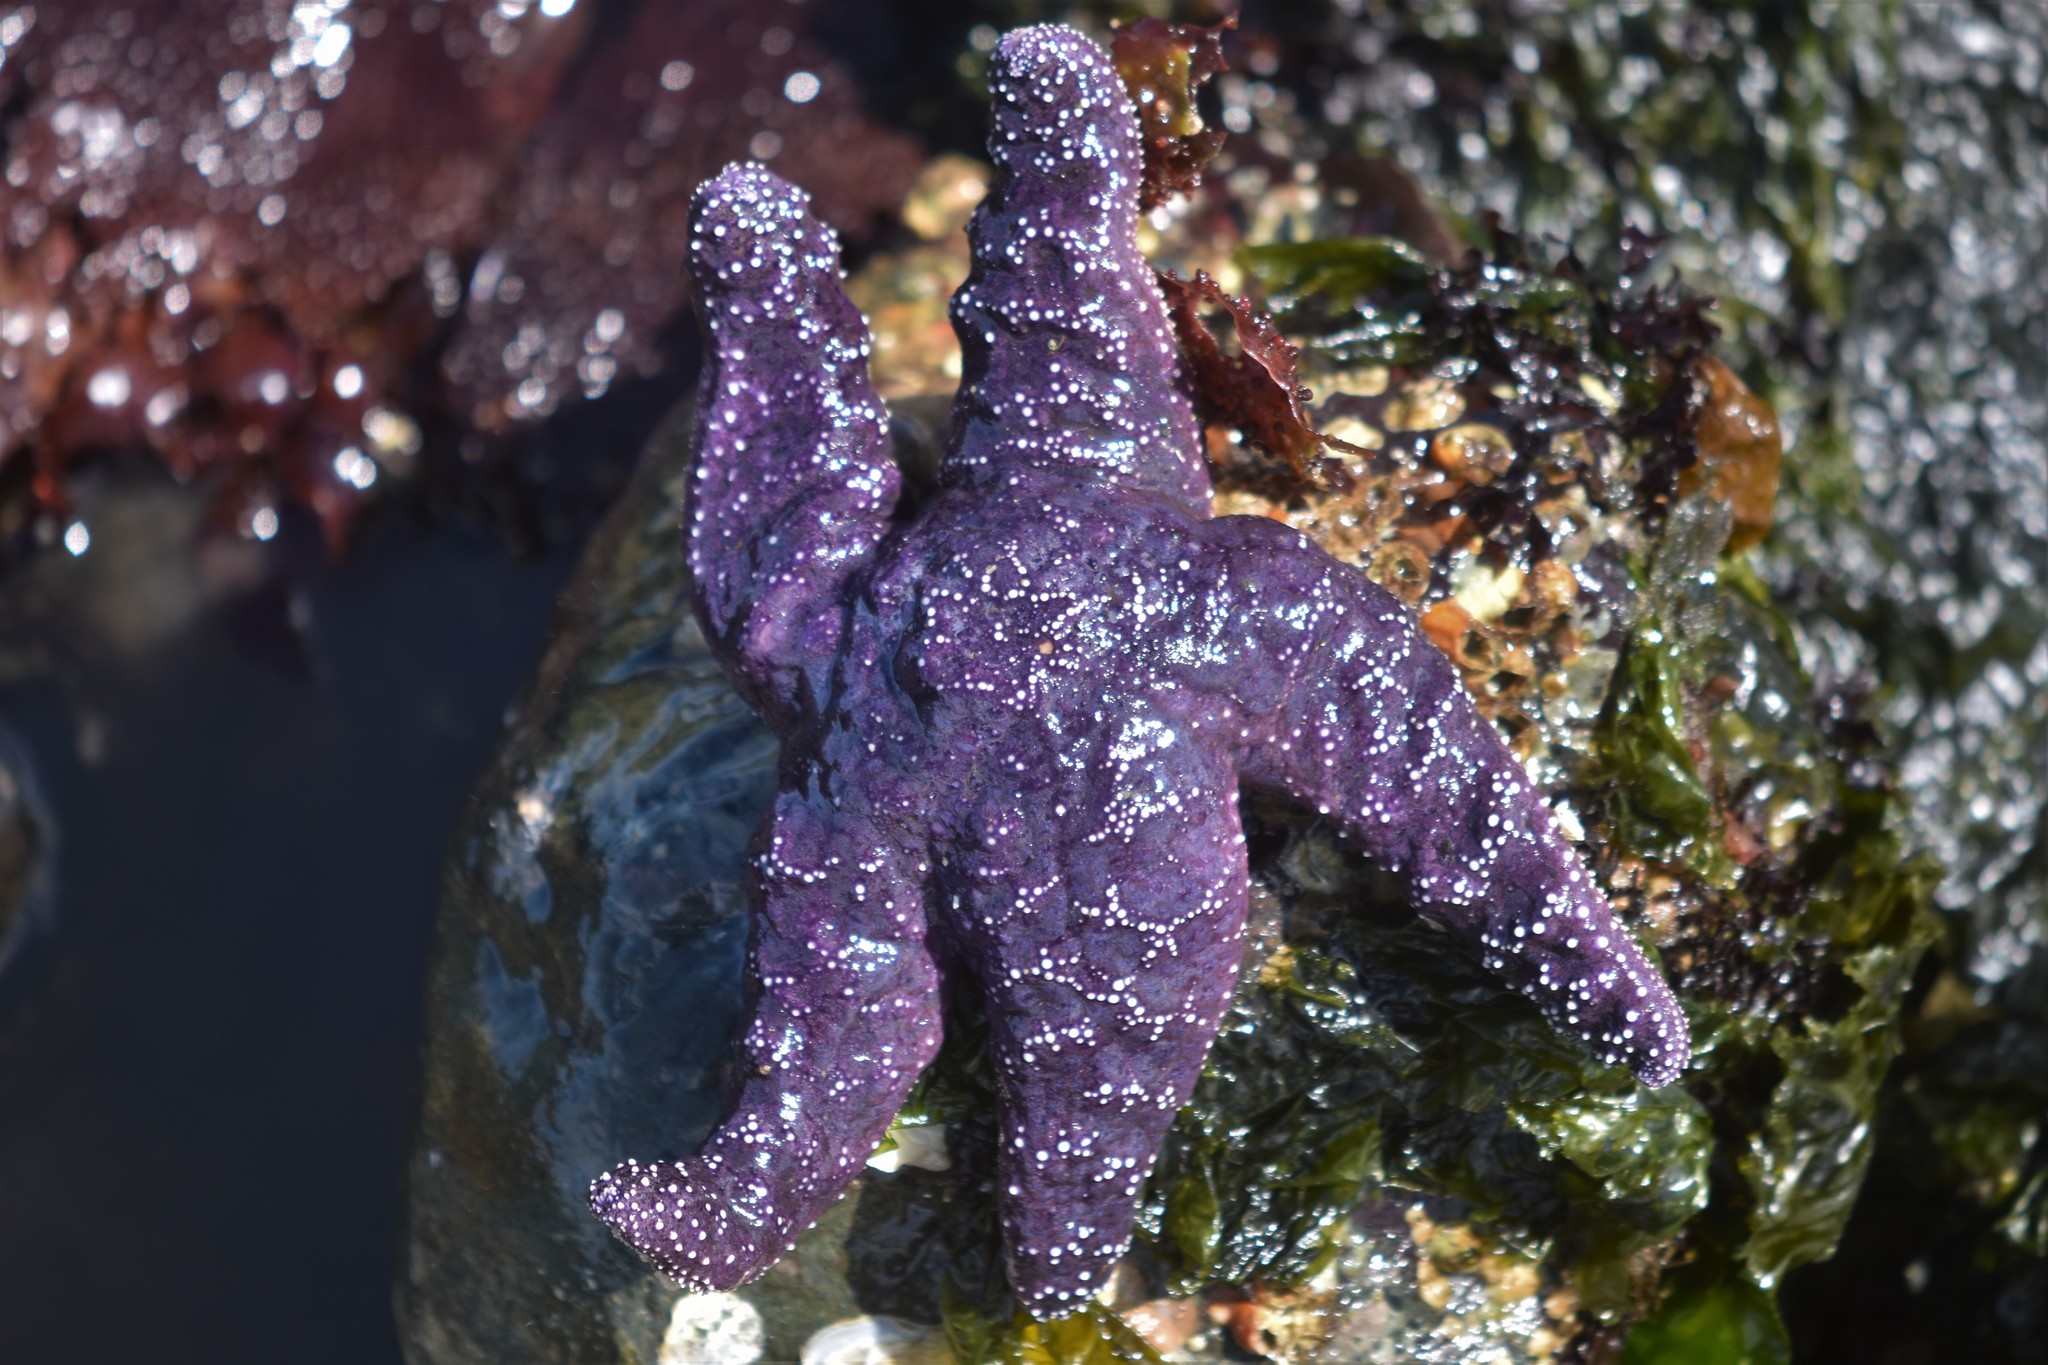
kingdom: Animalia
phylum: Echinodermata
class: Asteroidea
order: Forcipulatida
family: Asteriidae
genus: Pisaster
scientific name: Pisaster ochraceus
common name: Ochre stars
